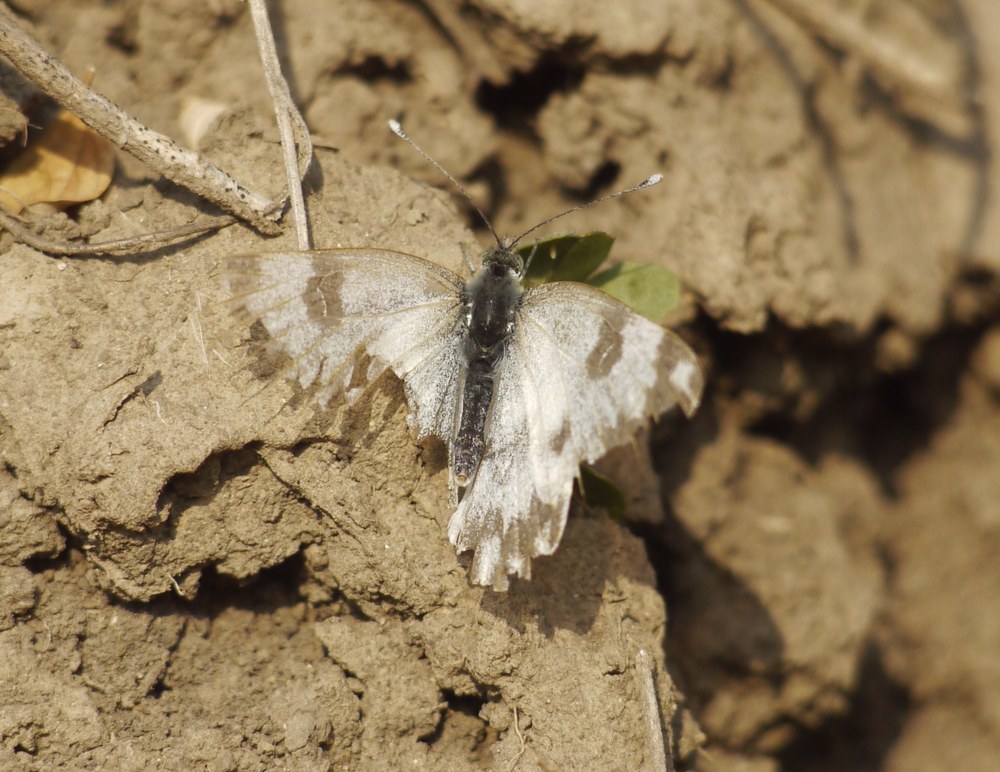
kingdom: Animalia
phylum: Arthropoda
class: Insecta
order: Lepidoptera
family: Pieridae
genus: Pontia
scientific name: Pontia edusa
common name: Eastern bath white
